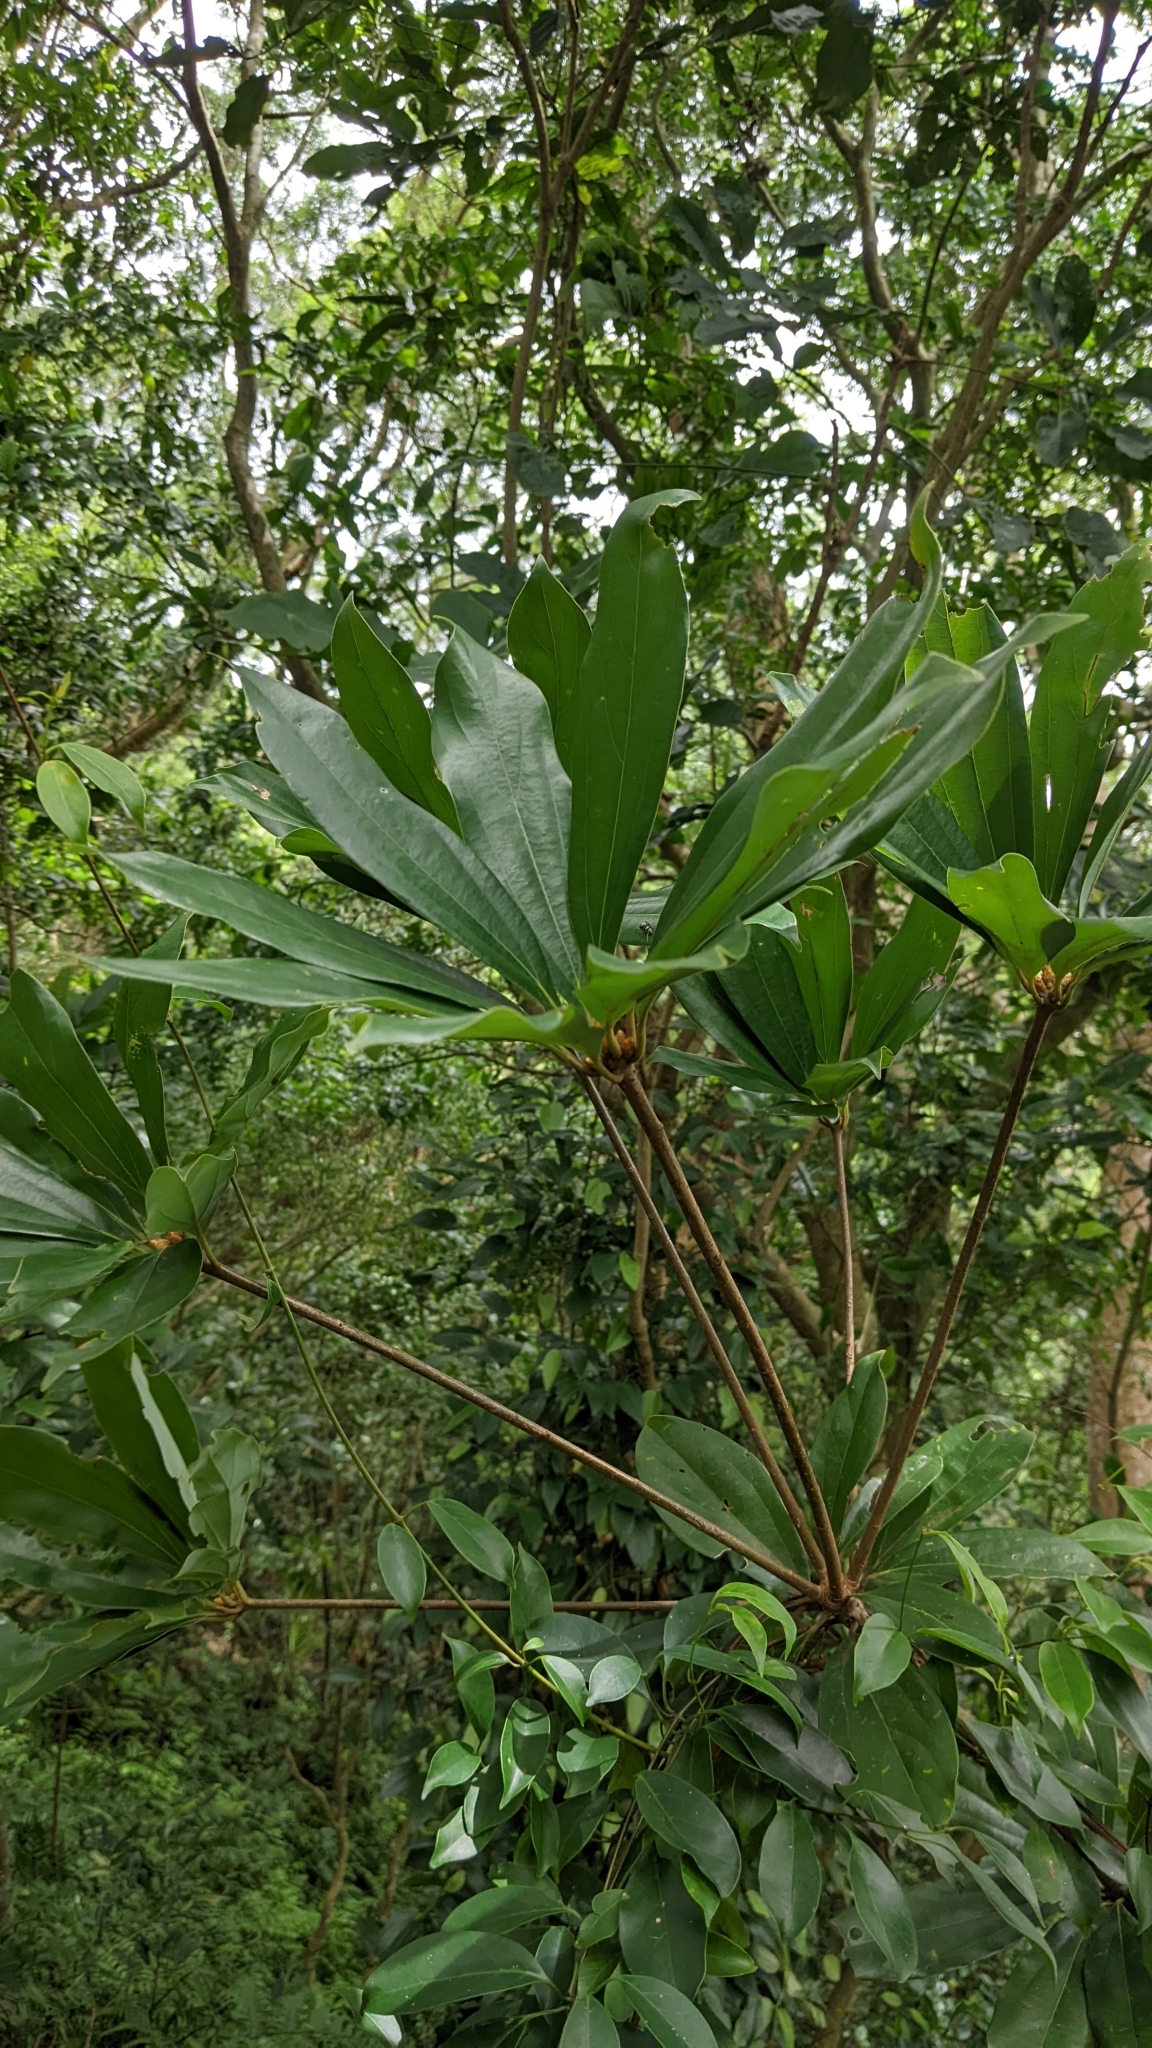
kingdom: Plantae
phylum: Tracheophyta
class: Magnoliopsida
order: Laurales
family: Lauraceae
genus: Neolitsea
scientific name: Neolitsea konishii
